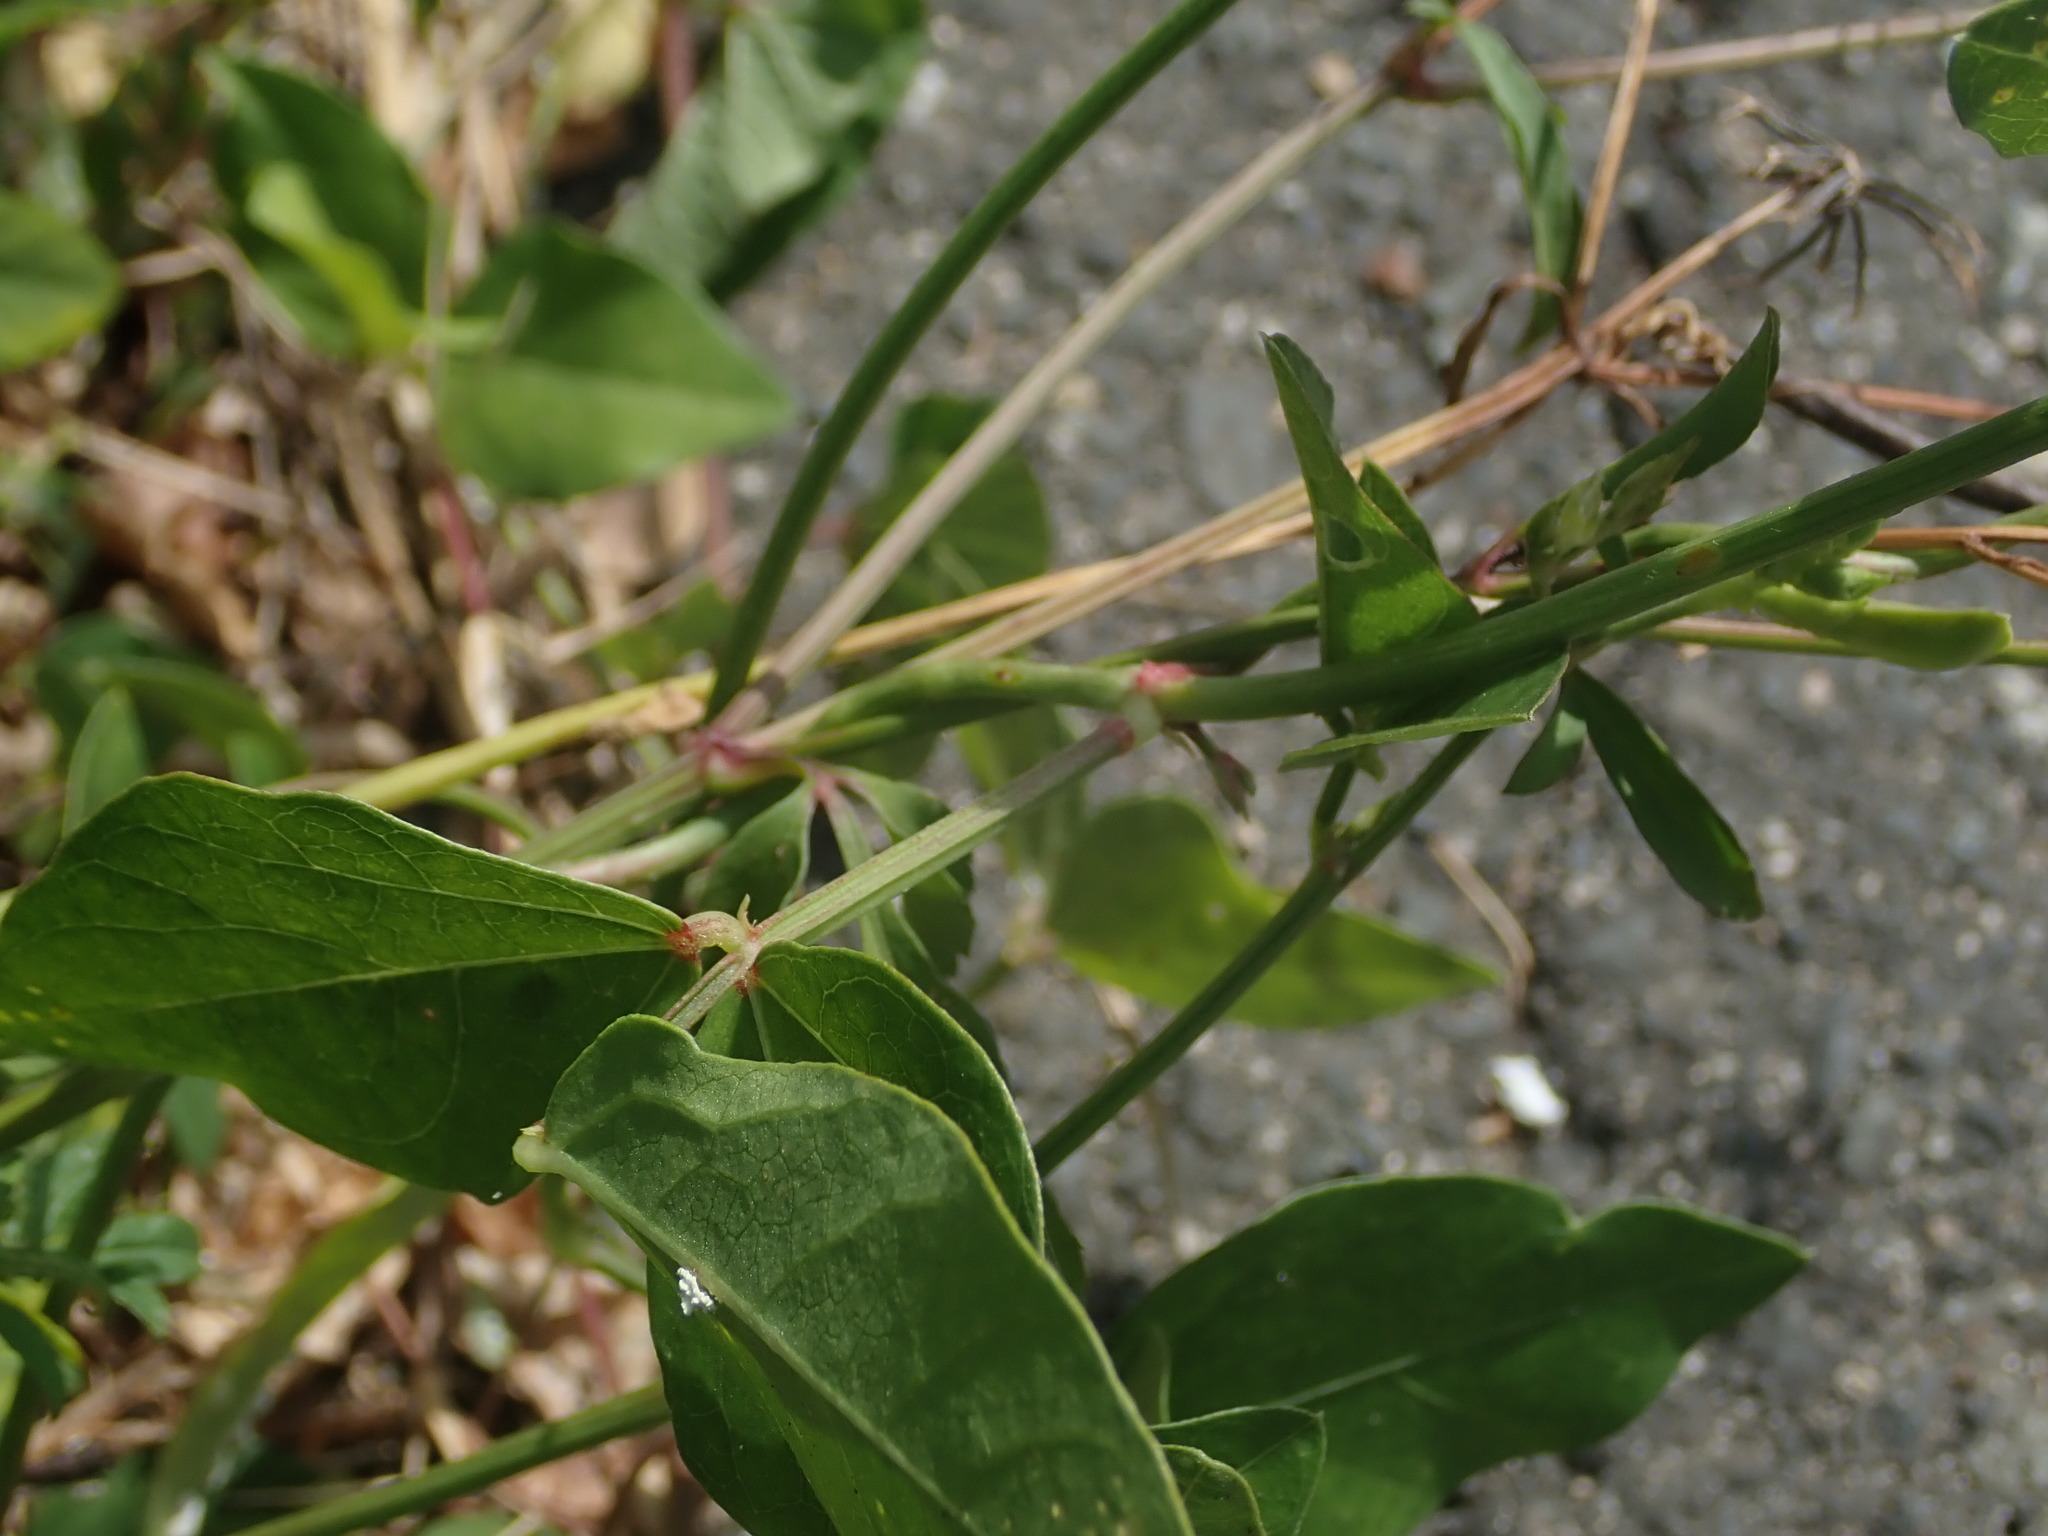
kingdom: Plantae
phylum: Tracheophyta
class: Magnoliopsida
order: Fabales
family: Fabaceae
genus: Vigna
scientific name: Vigna luteola
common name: Hairypod cowpea
